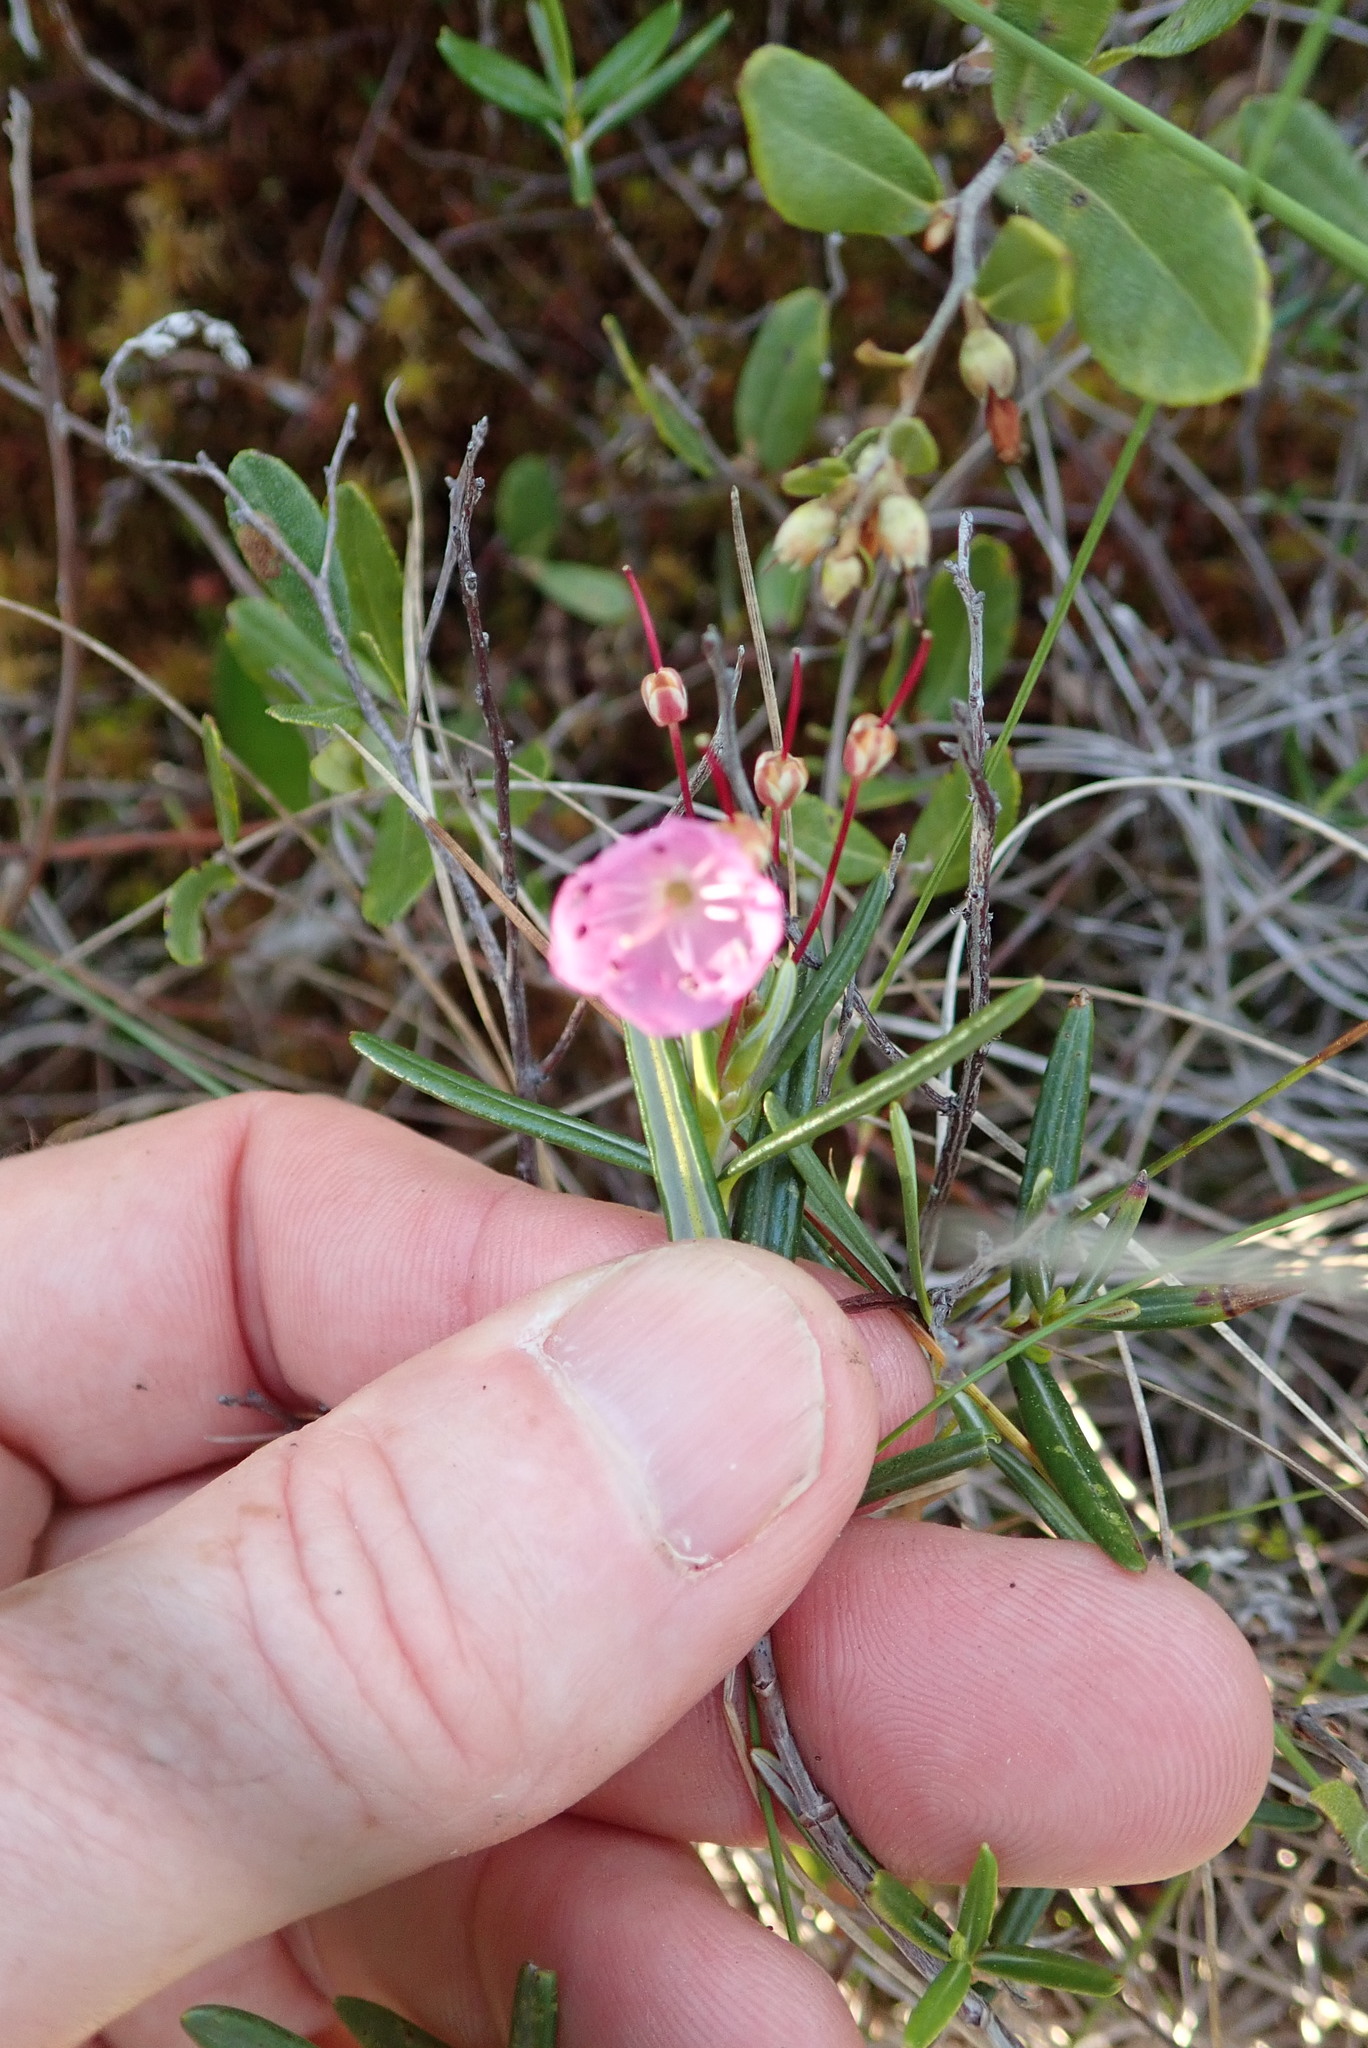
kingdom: Plantae
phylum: Tracheophyta
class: Magnoliopsida
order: Ericales
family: Ericaceae
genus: Kalmia
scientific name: Kalmia polifolia
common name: Bog-laurel
